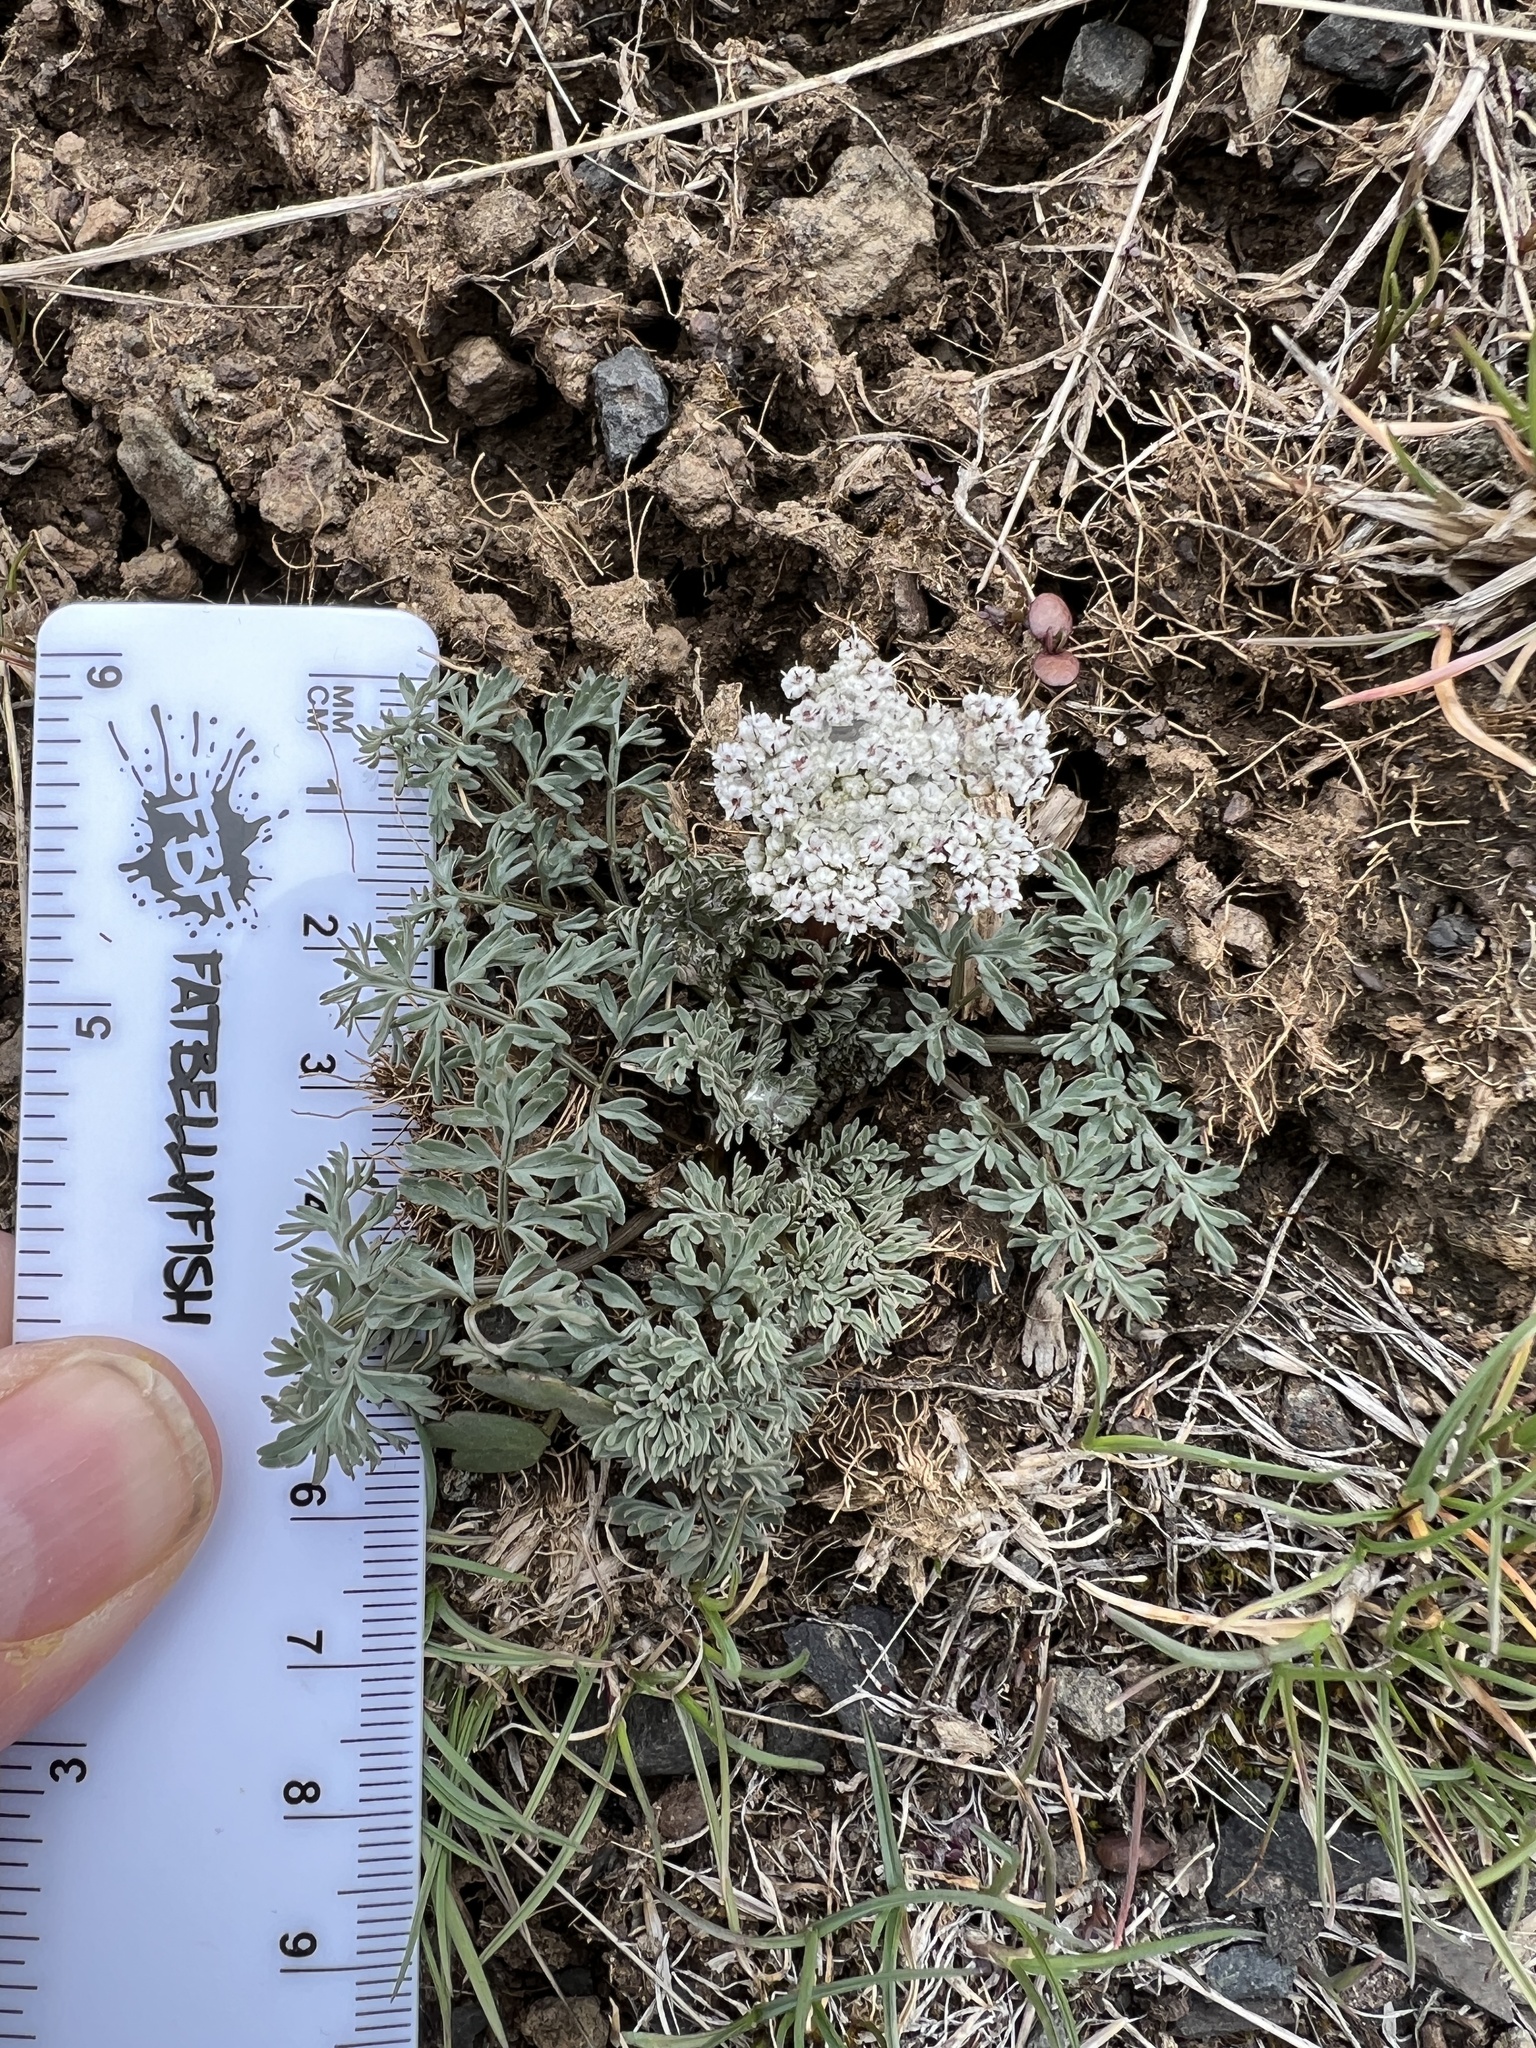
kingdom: Plantae
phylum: Tracheophyta
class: Magnoliopsida
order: Apiales
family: Apiaceae
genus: Lomatium
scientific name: Lomatium canbyi
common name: Chucklusa
